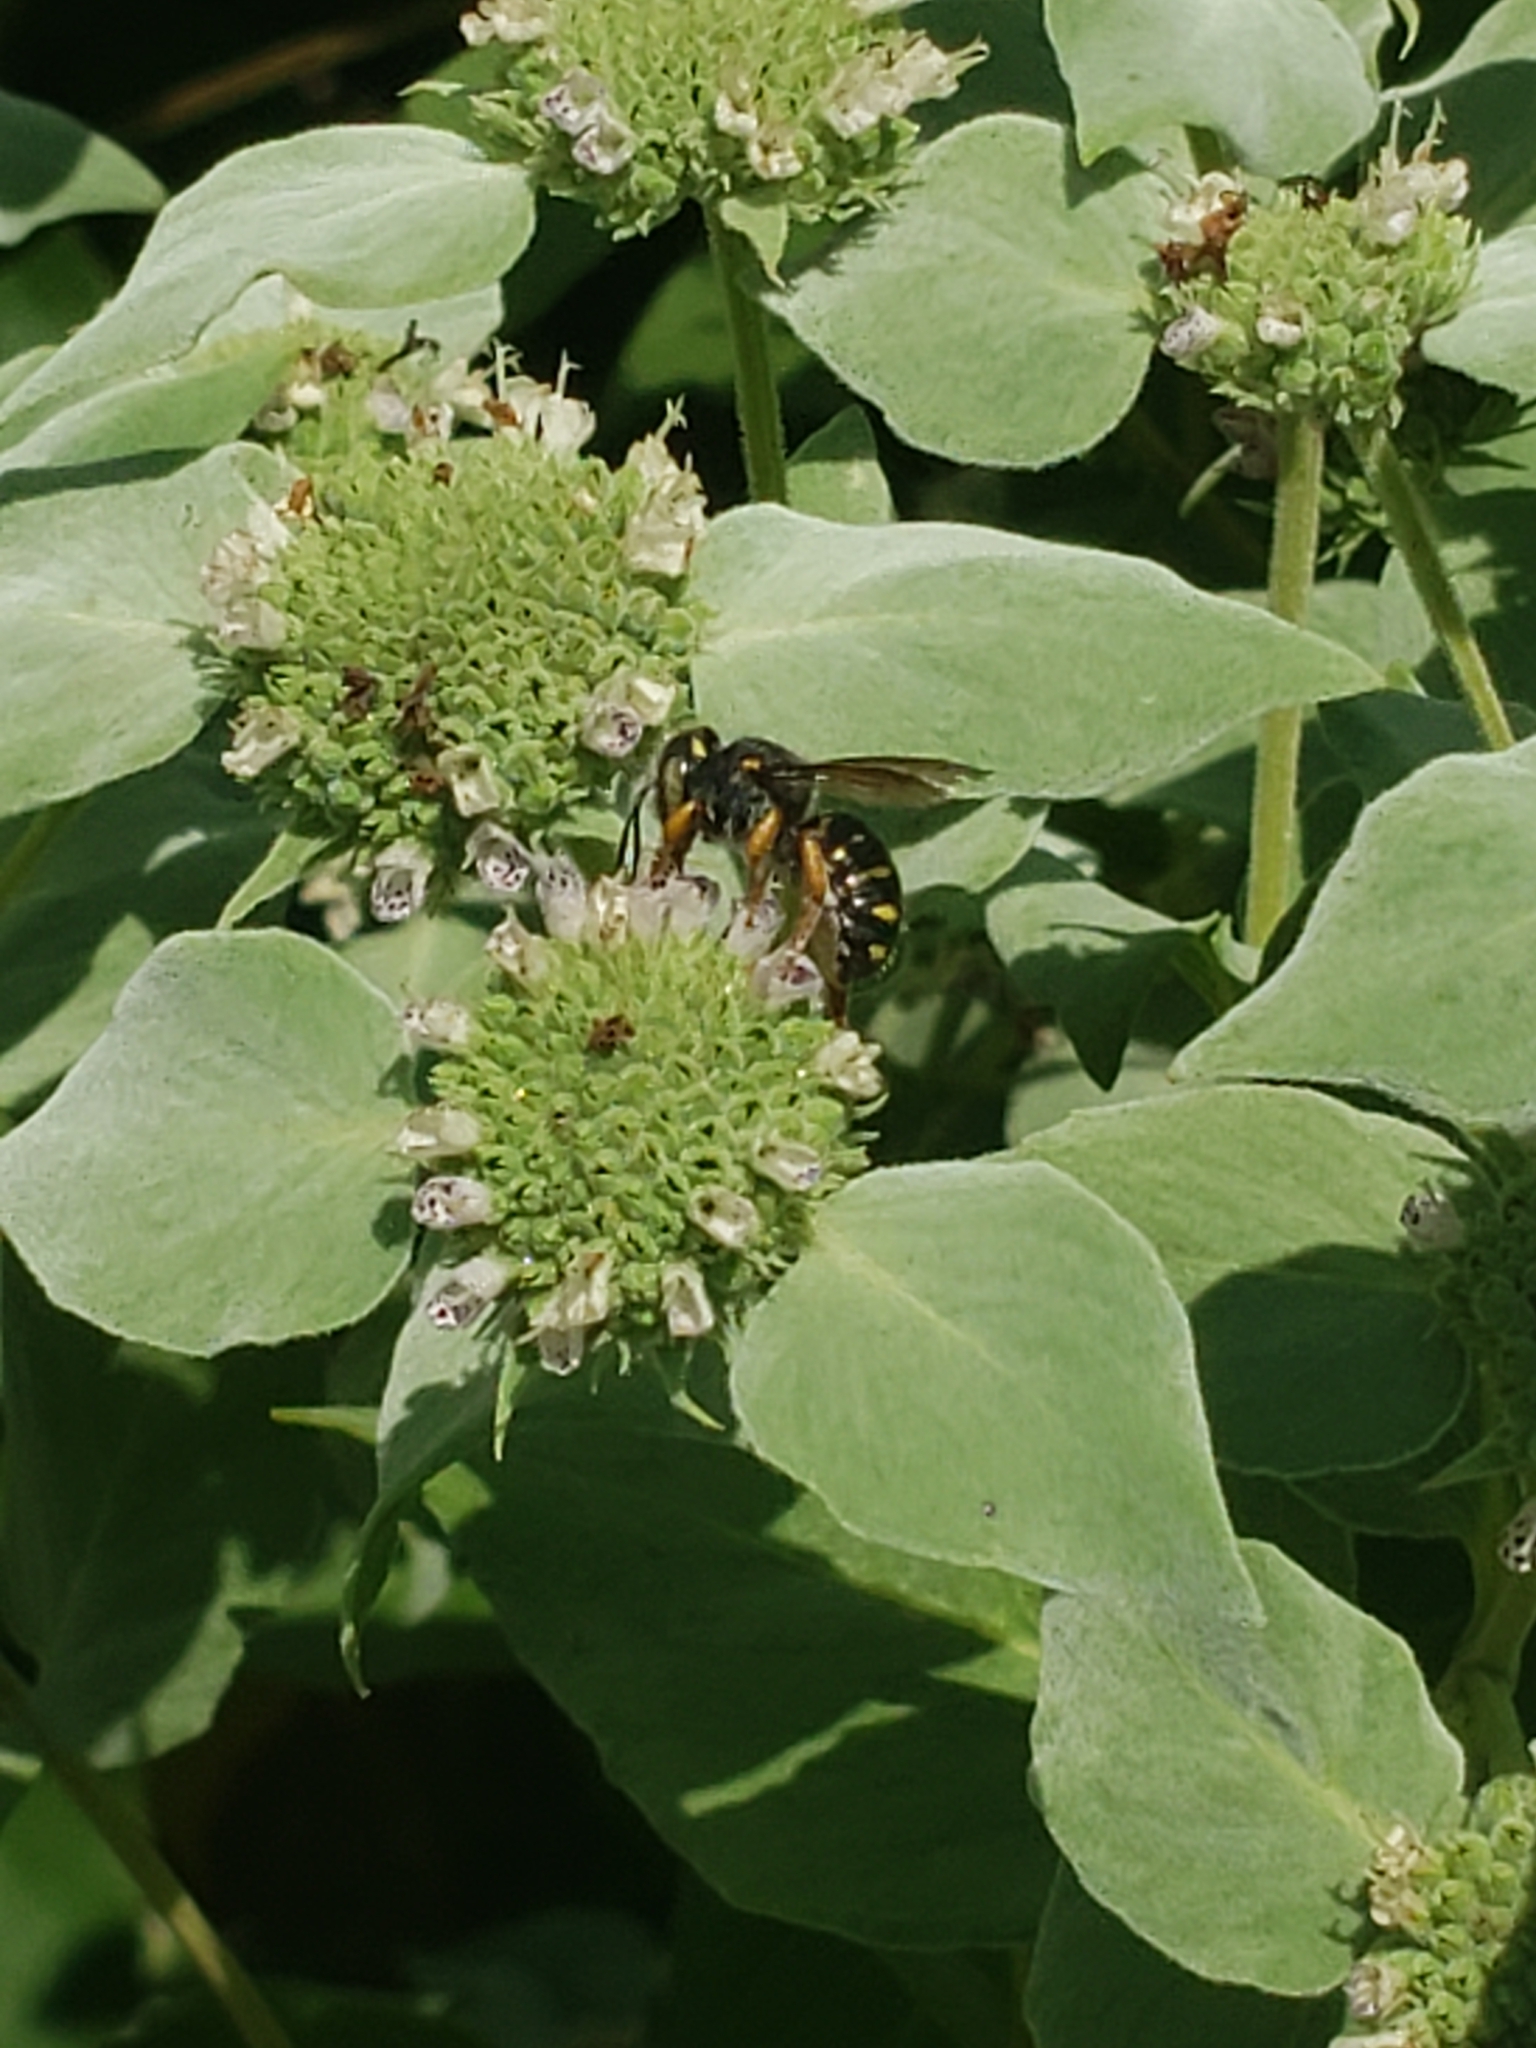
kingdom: Animalia
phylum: Arthropoda
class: Insecta
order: Hymenoptera
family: Megachilidae
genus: Anthidium
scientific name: Anthidium oblongatum
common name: Oblong wool carder bee
